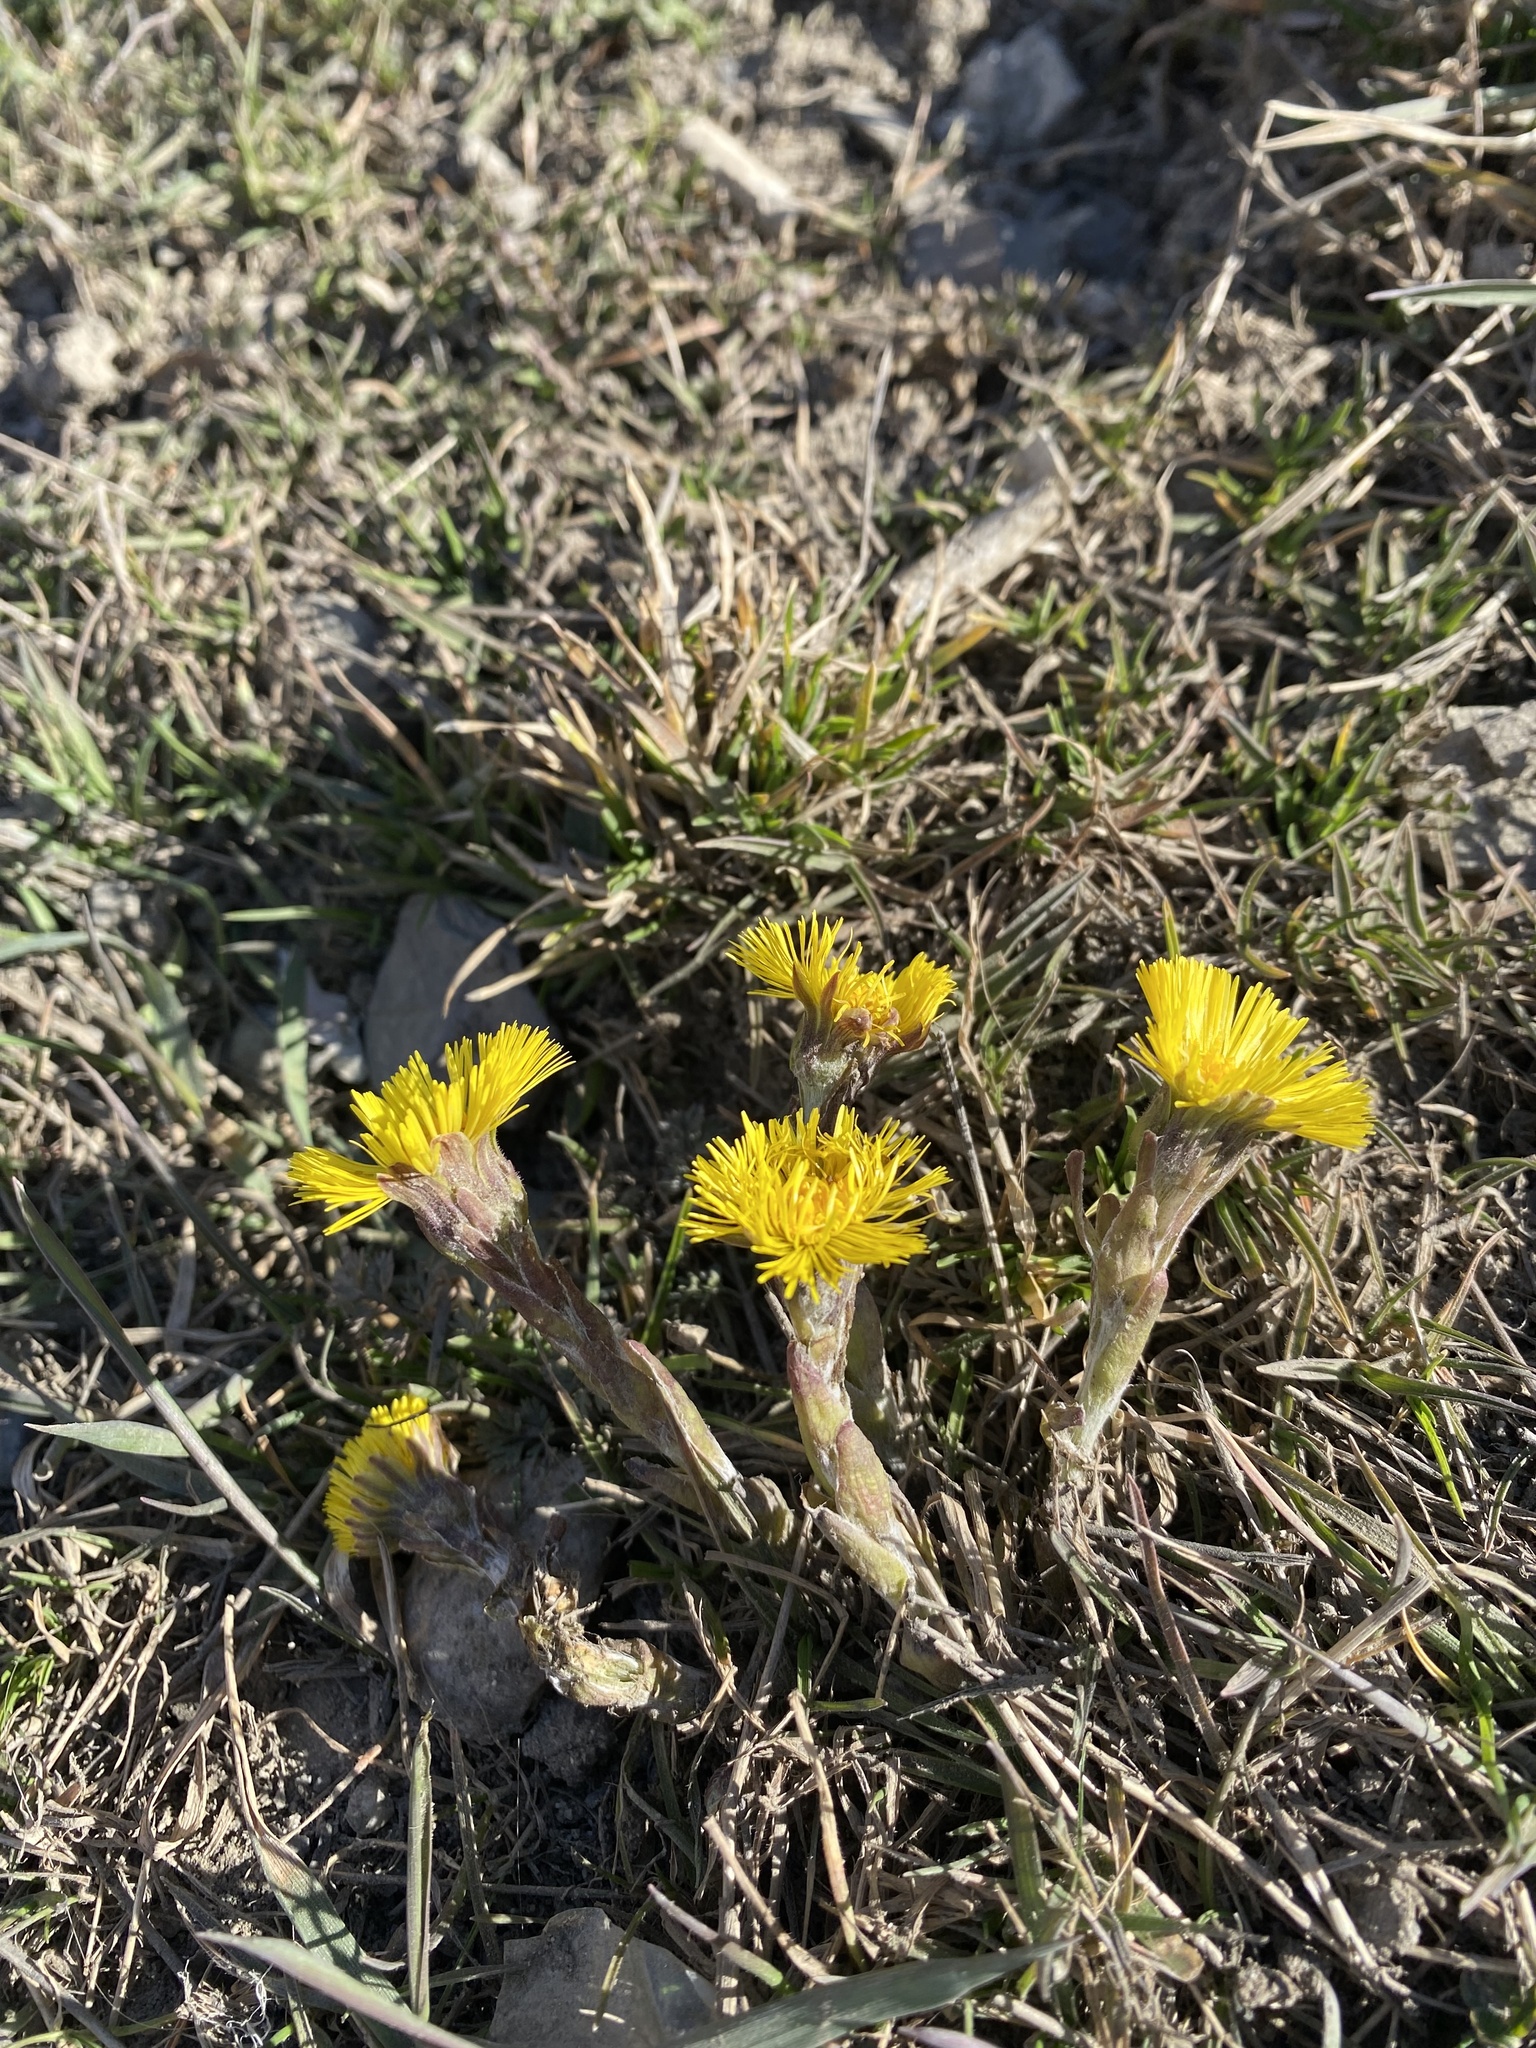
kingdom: Plantae
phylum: Tracheophyta
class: Magnoliopsida
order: Asterales
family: Asteraceae
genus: Tussilago
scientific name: Tussilago farfara
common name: Coltsfoot
